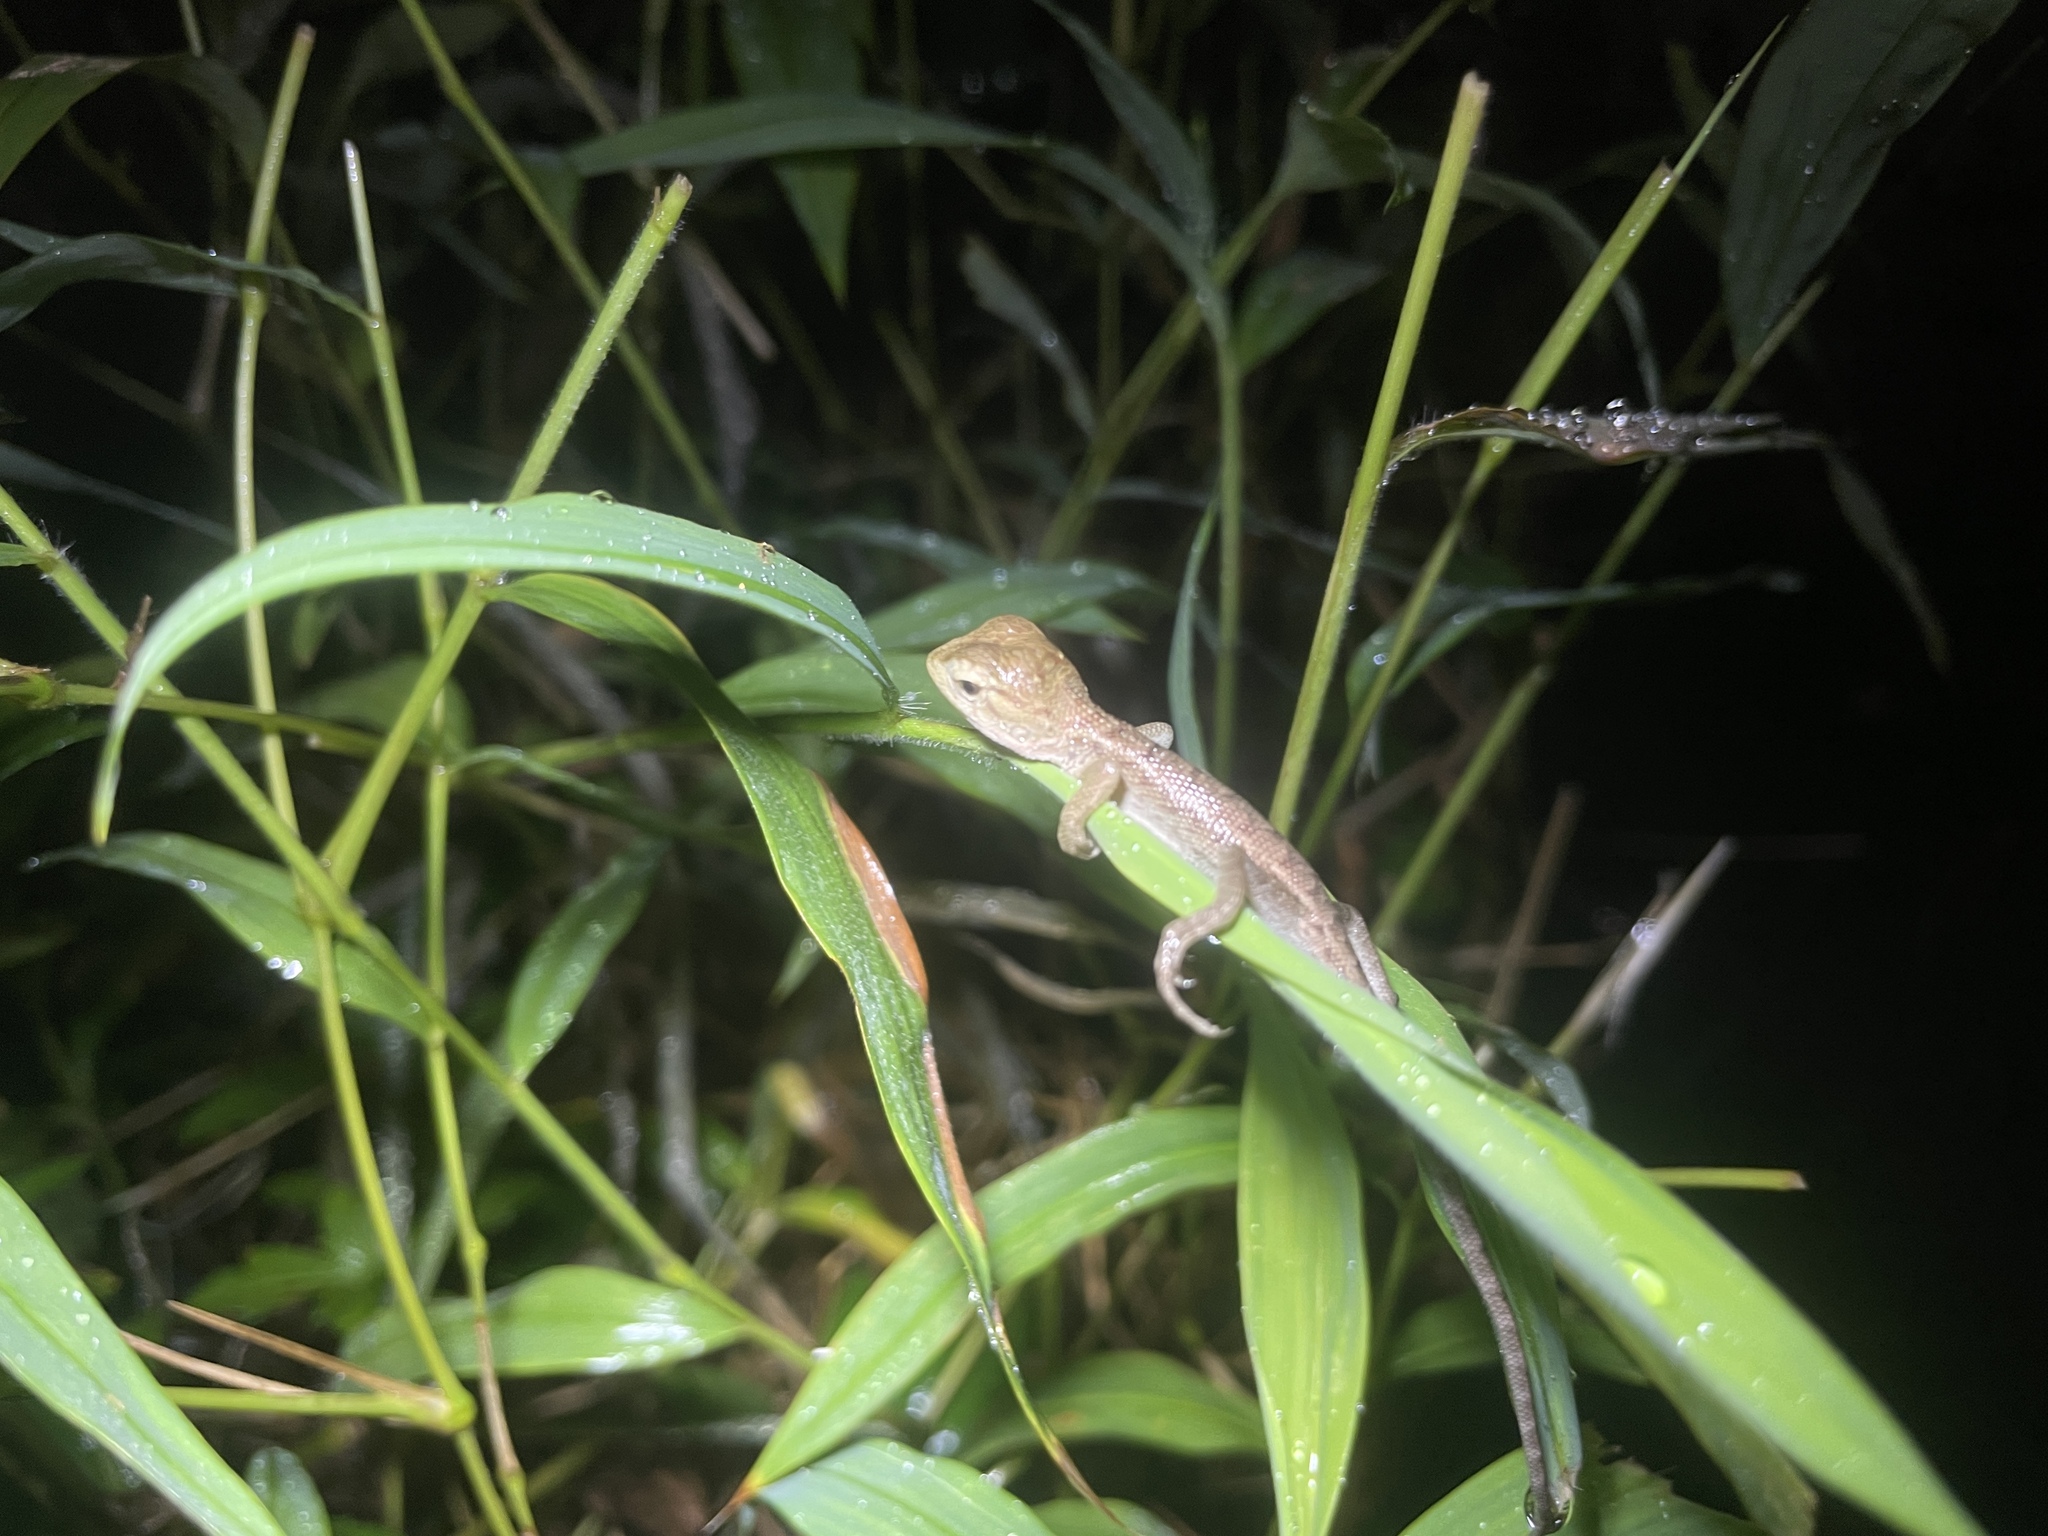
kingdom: Animalia
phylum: Chordata
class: Squamata
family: Agamidae
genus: Calotes
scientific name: Calotes versicolor
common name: Oriental garden lizard
